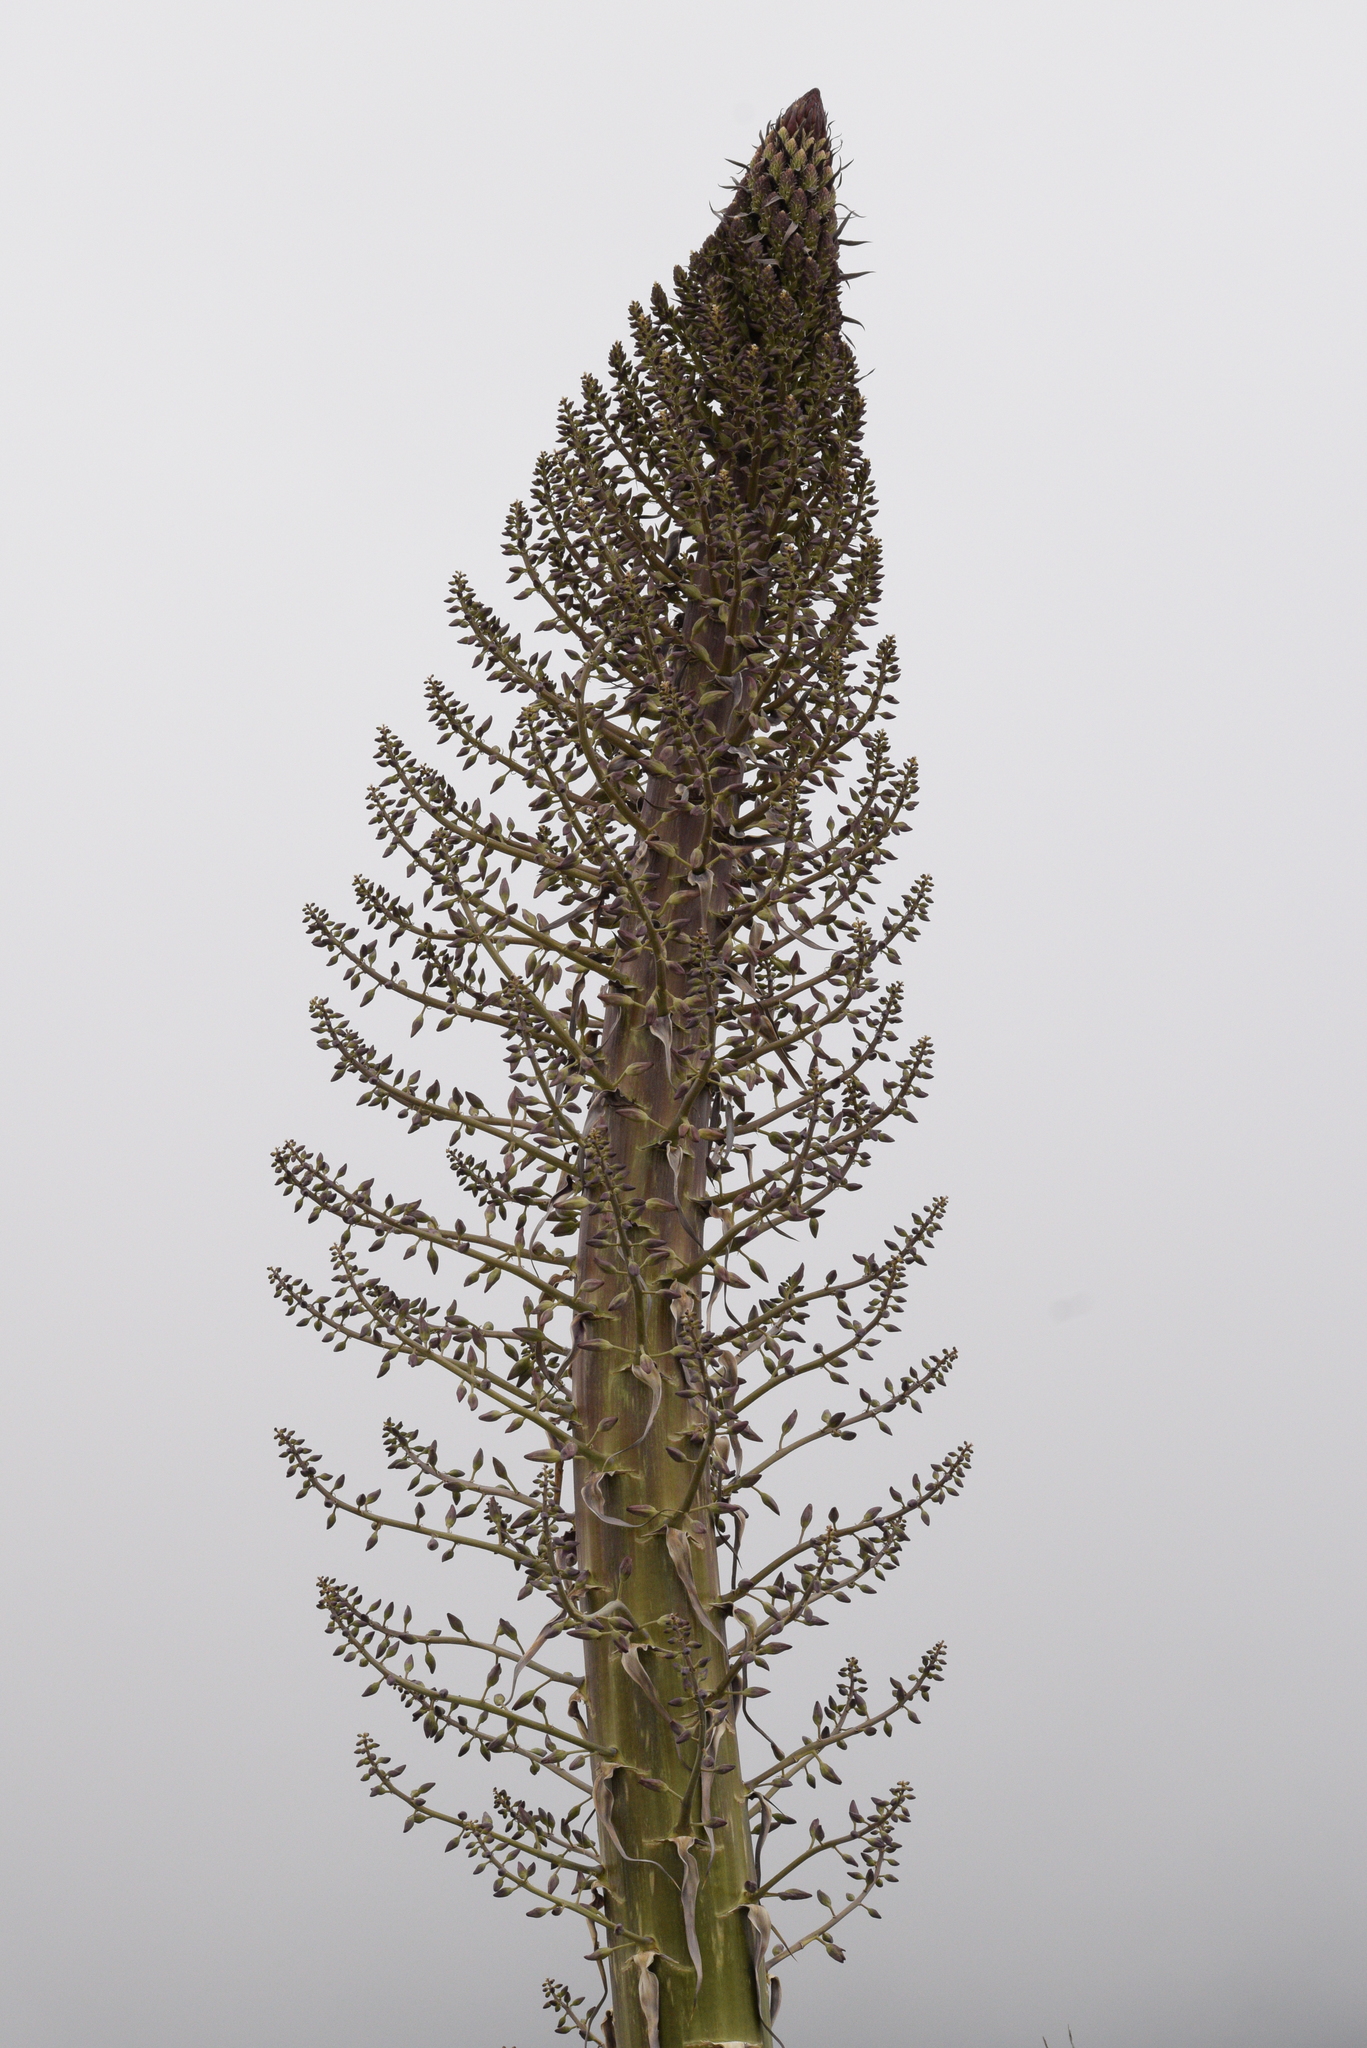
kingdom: Plantae
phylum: Tracheophyta
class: Liliopsida
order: Asparagales
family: Asparagaceae
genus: Hesperoyucca
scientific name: Hesperoyucca whipplei
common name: Our lord's-candle
